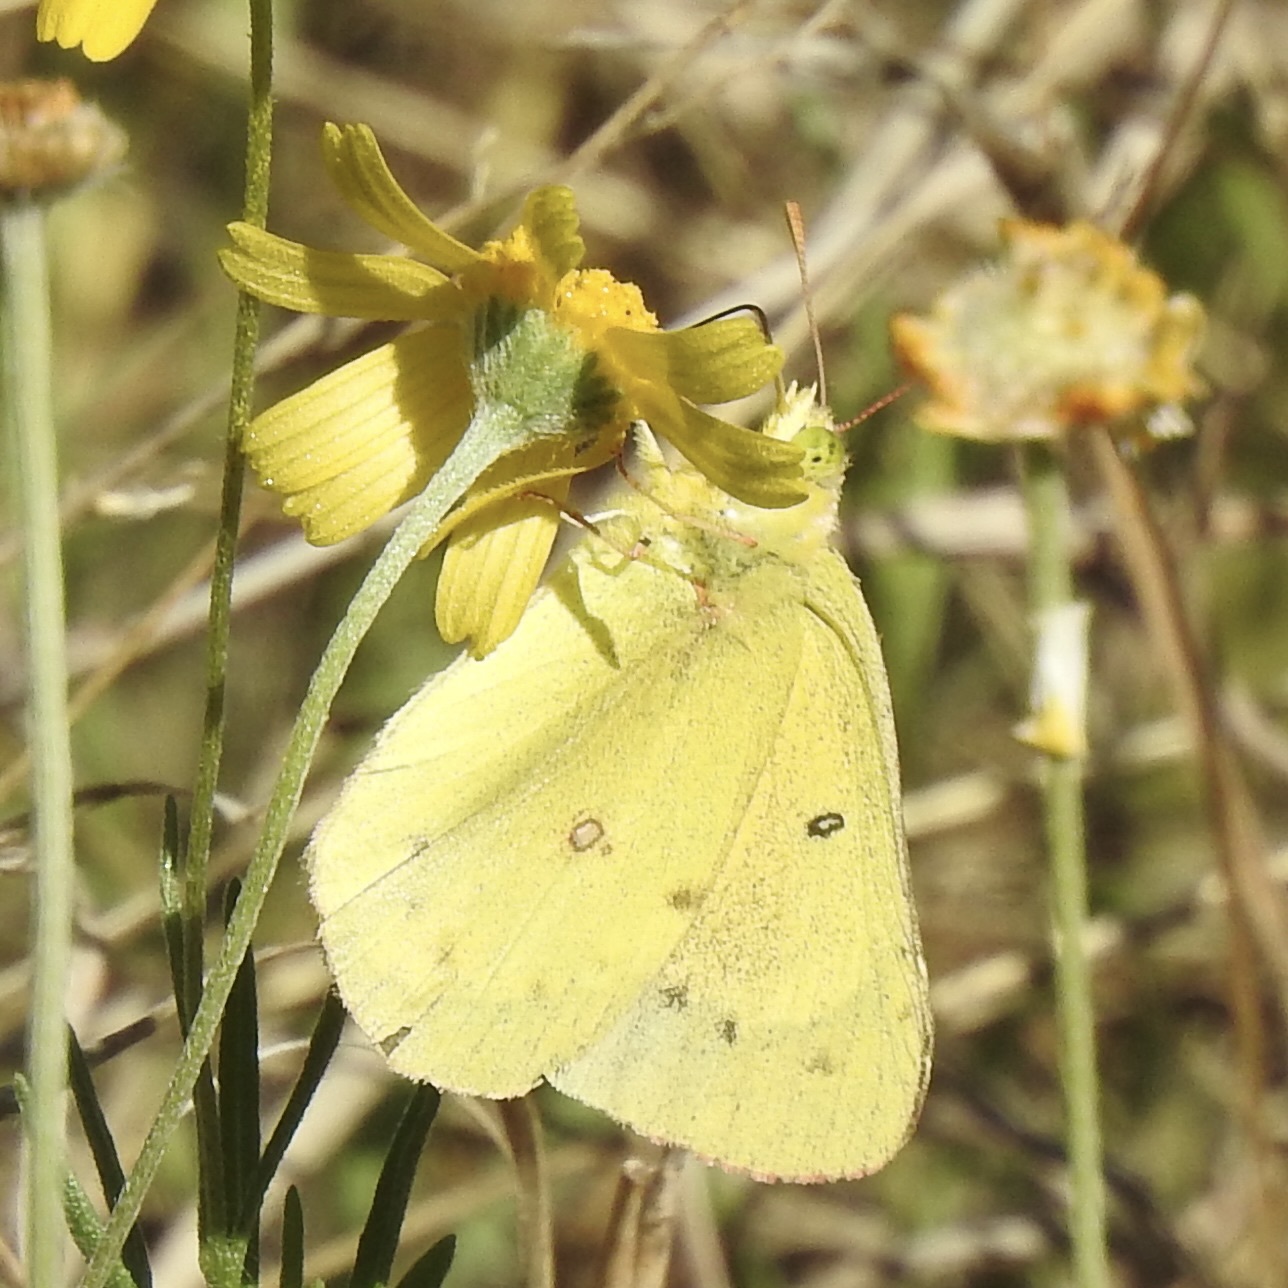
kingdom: Animalia
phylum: Arthropoda
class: Insecta
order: Lepidoptera
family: Pieridae
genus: Colias
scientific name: Colias eurytheme
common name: Alfalfa butterfly
